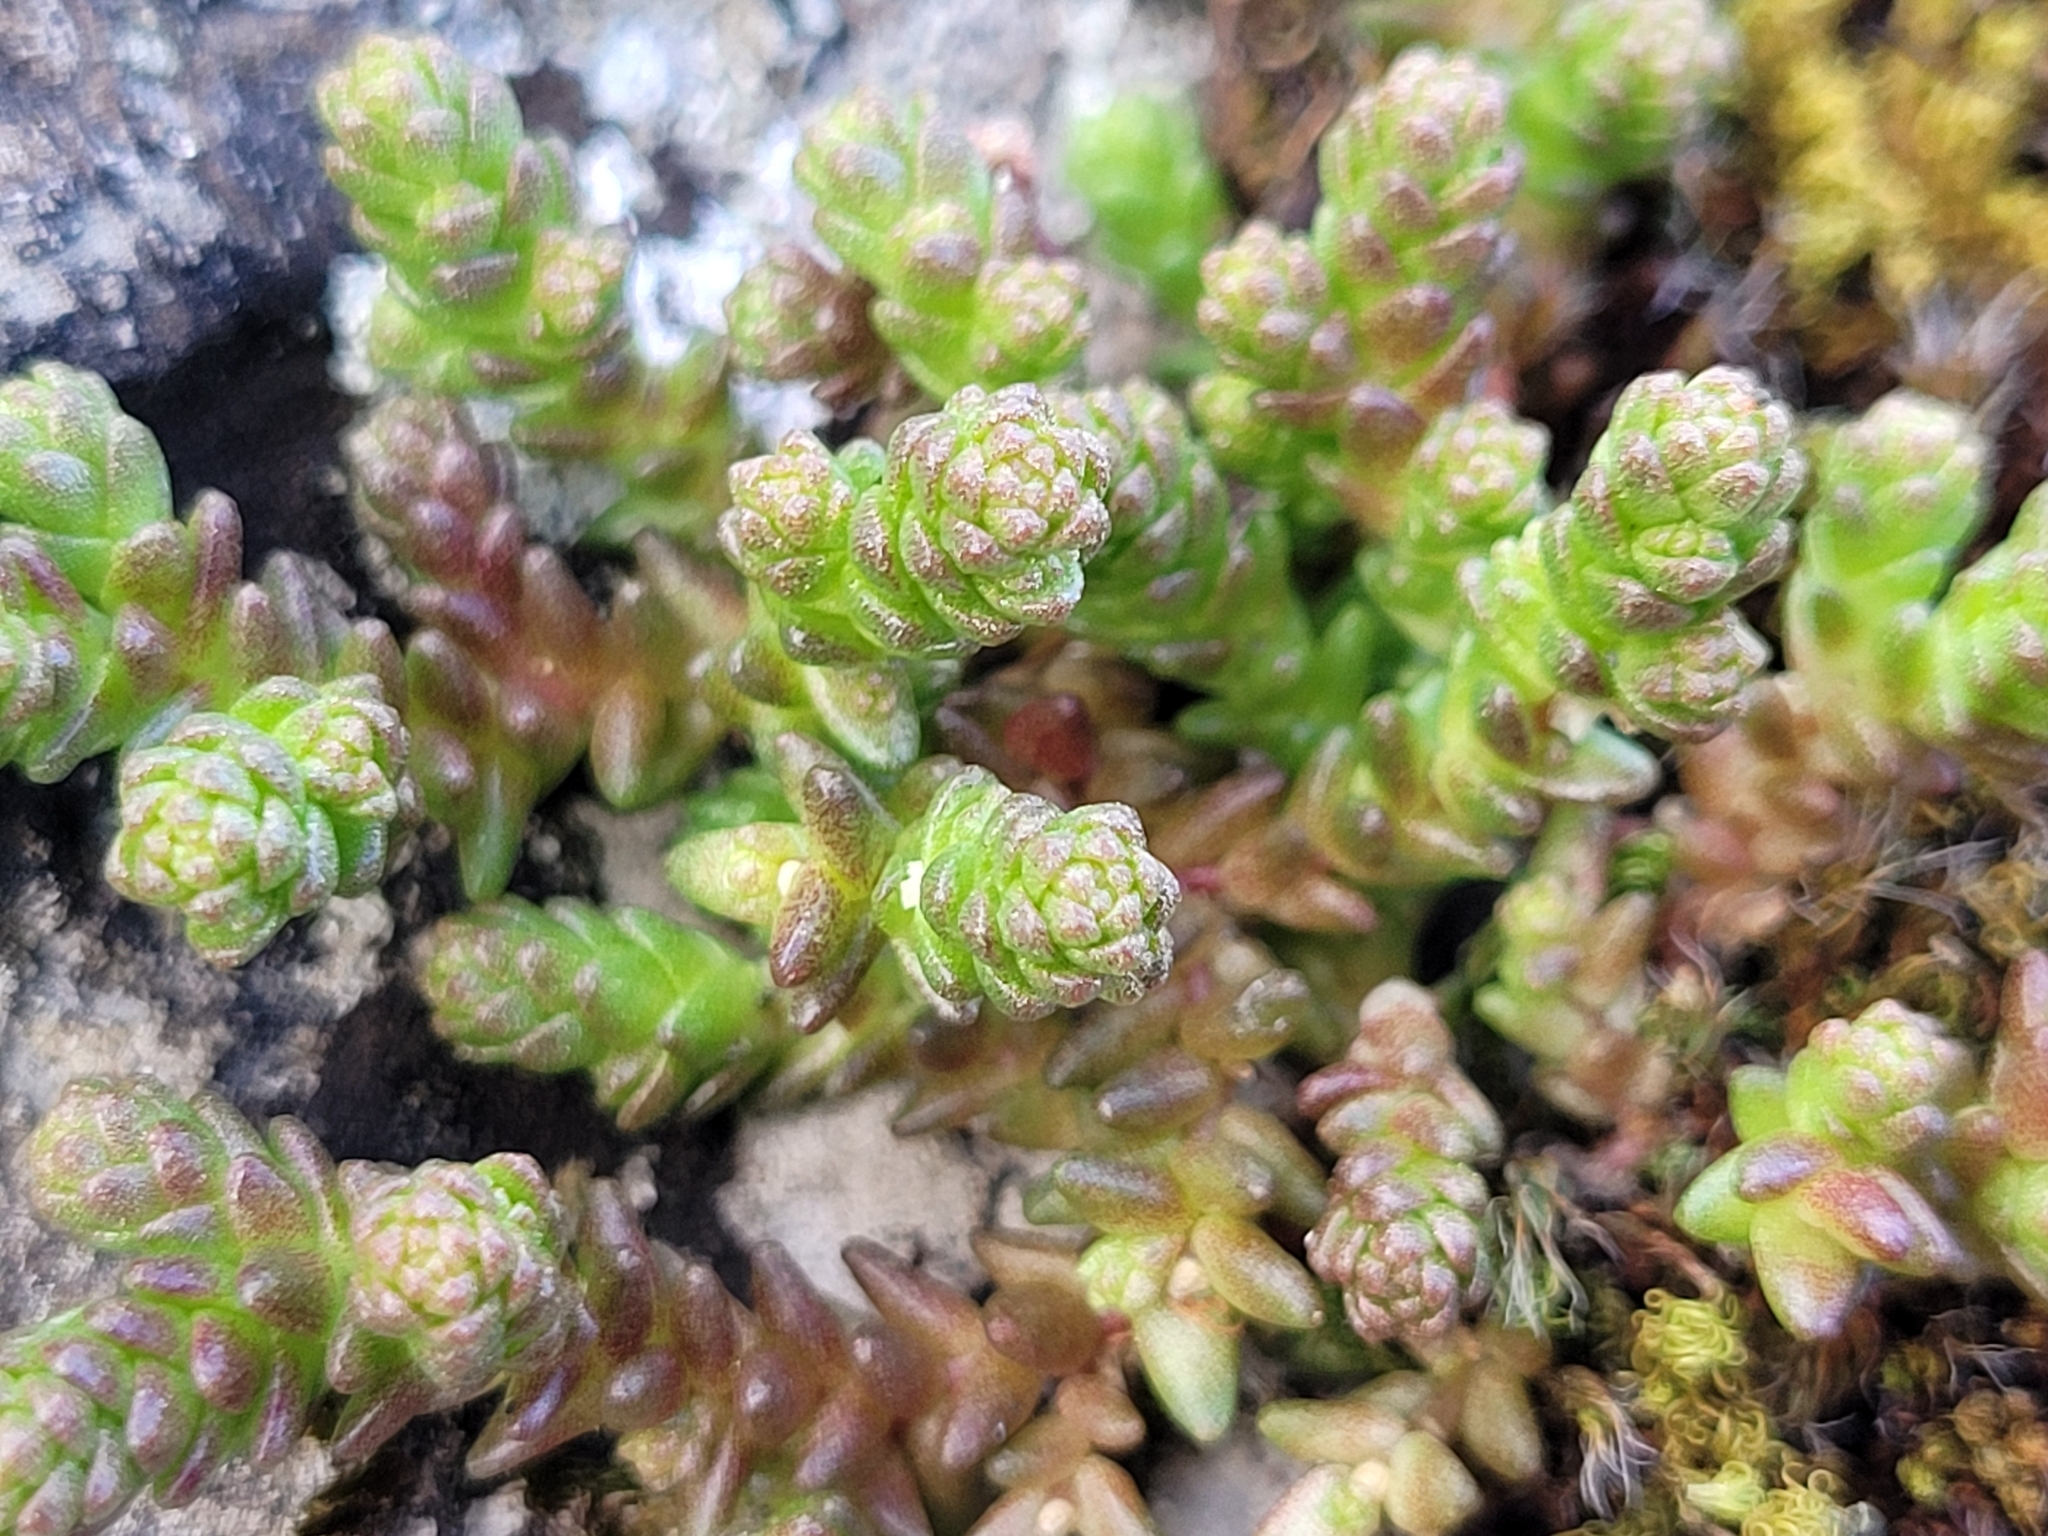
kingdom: Plantae
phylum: Tracheophyta
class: Magnoliopsida
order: Saxifragales
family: Crassulaceae
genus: Sedum
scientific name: Sedum acre
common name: Biting stonecrop
